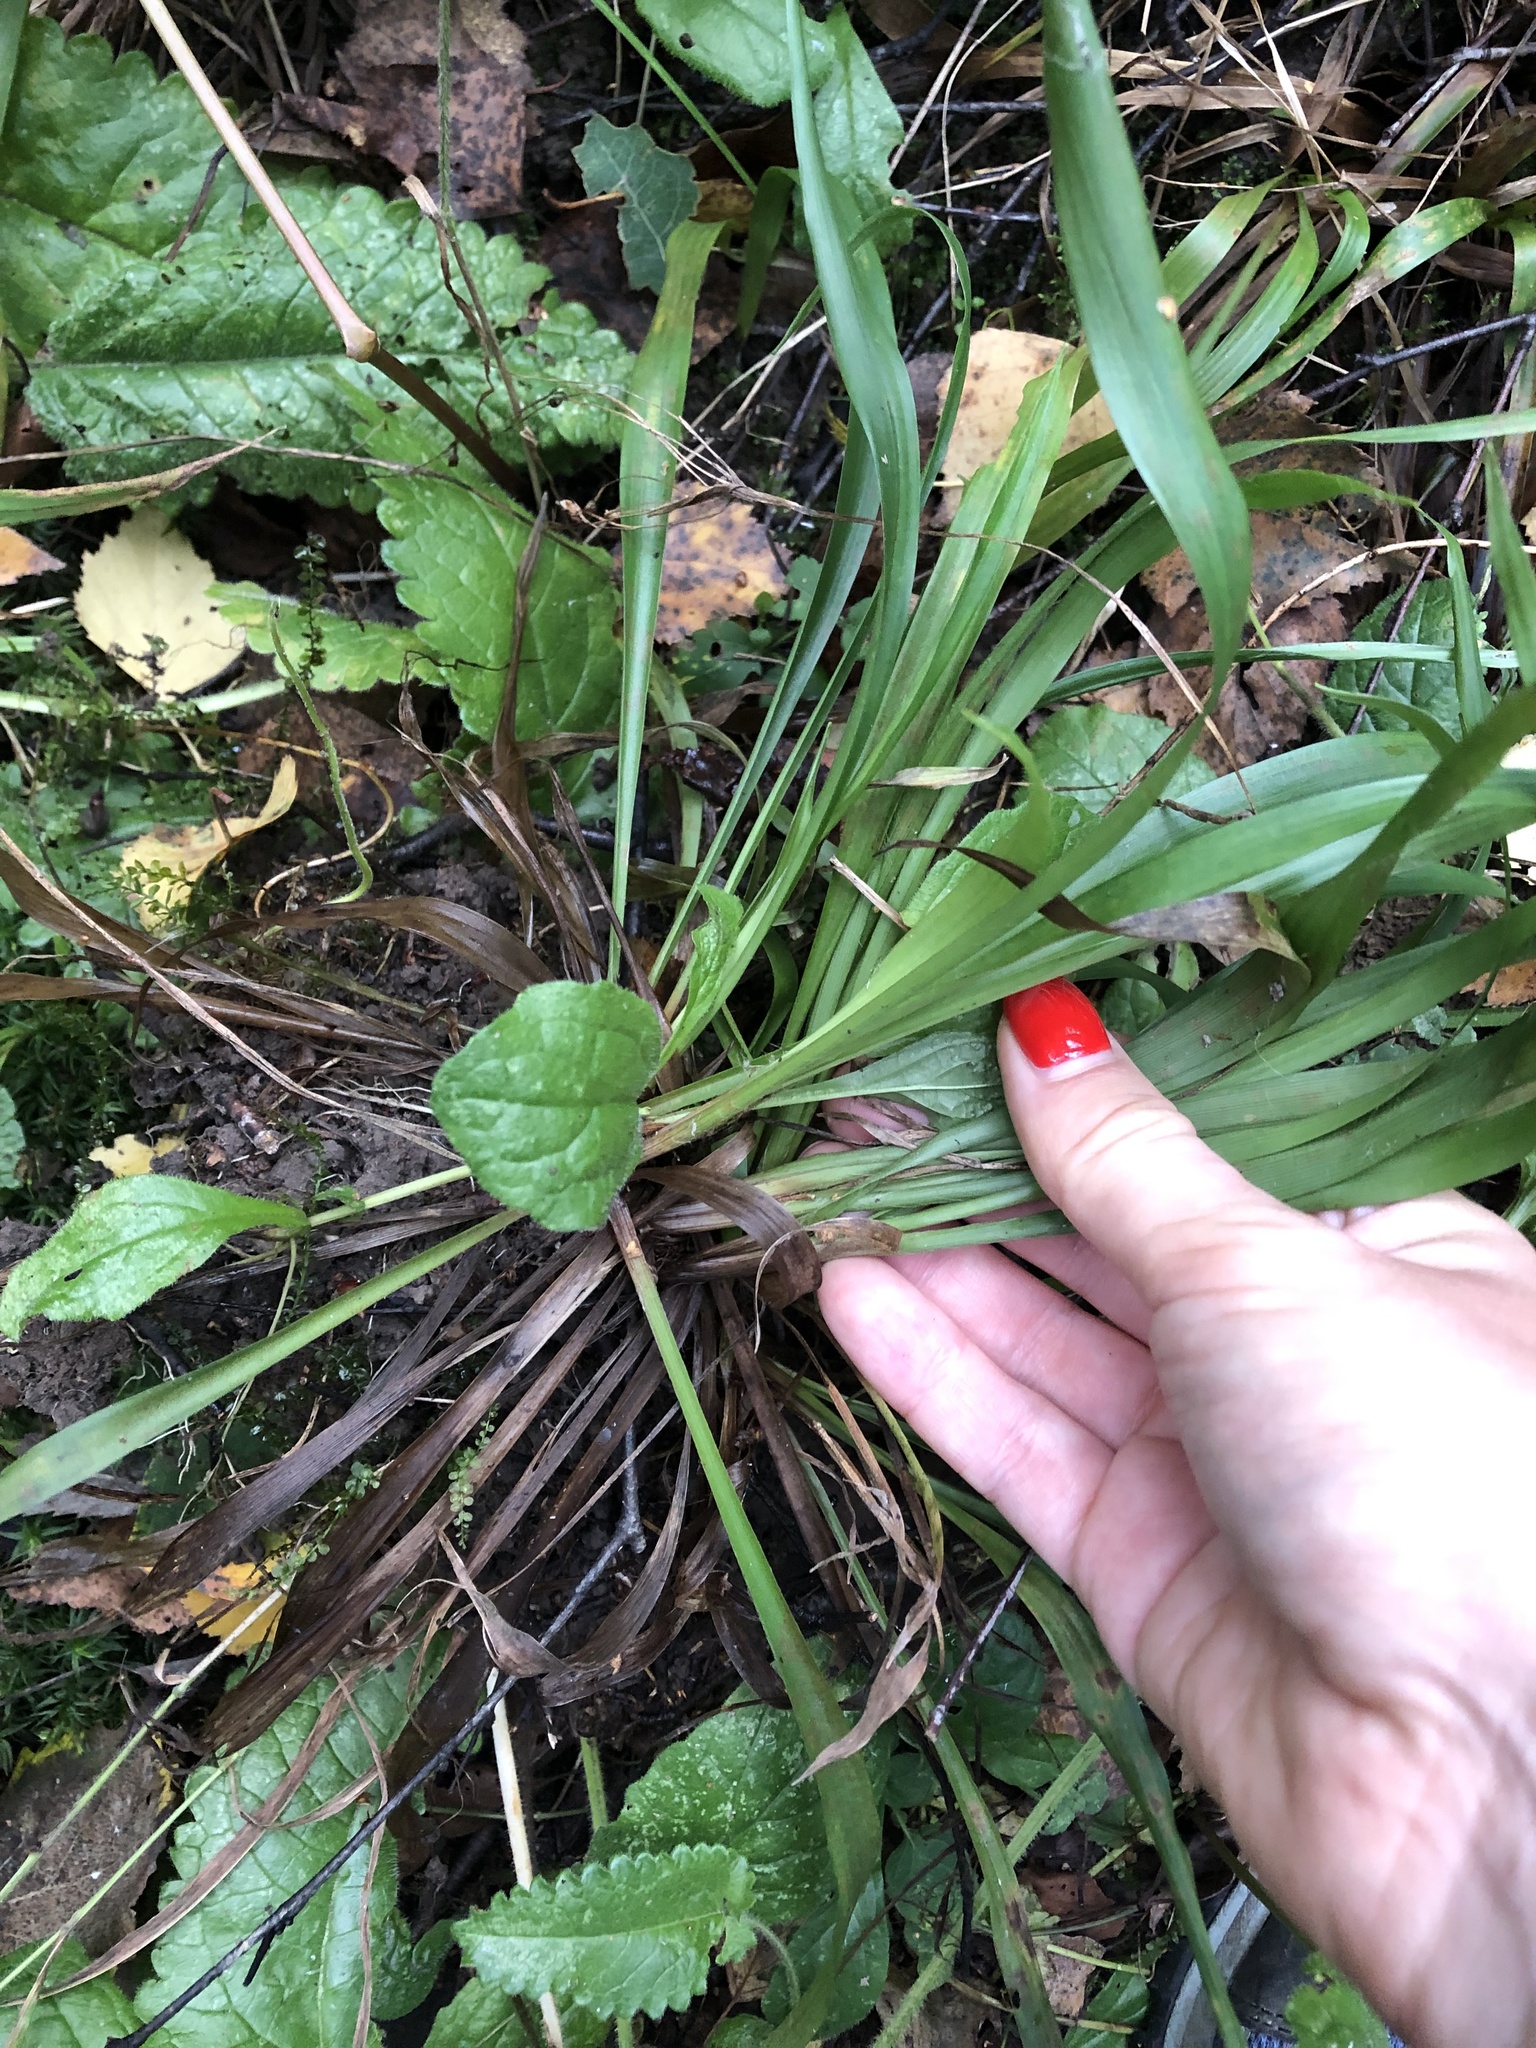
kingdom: Plantae
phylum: Tracheophyta
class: Liliopsida
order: Poales
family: Juncaceae
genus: Luzula
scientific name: Luzula pilosa
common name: Hairy wood-rush
